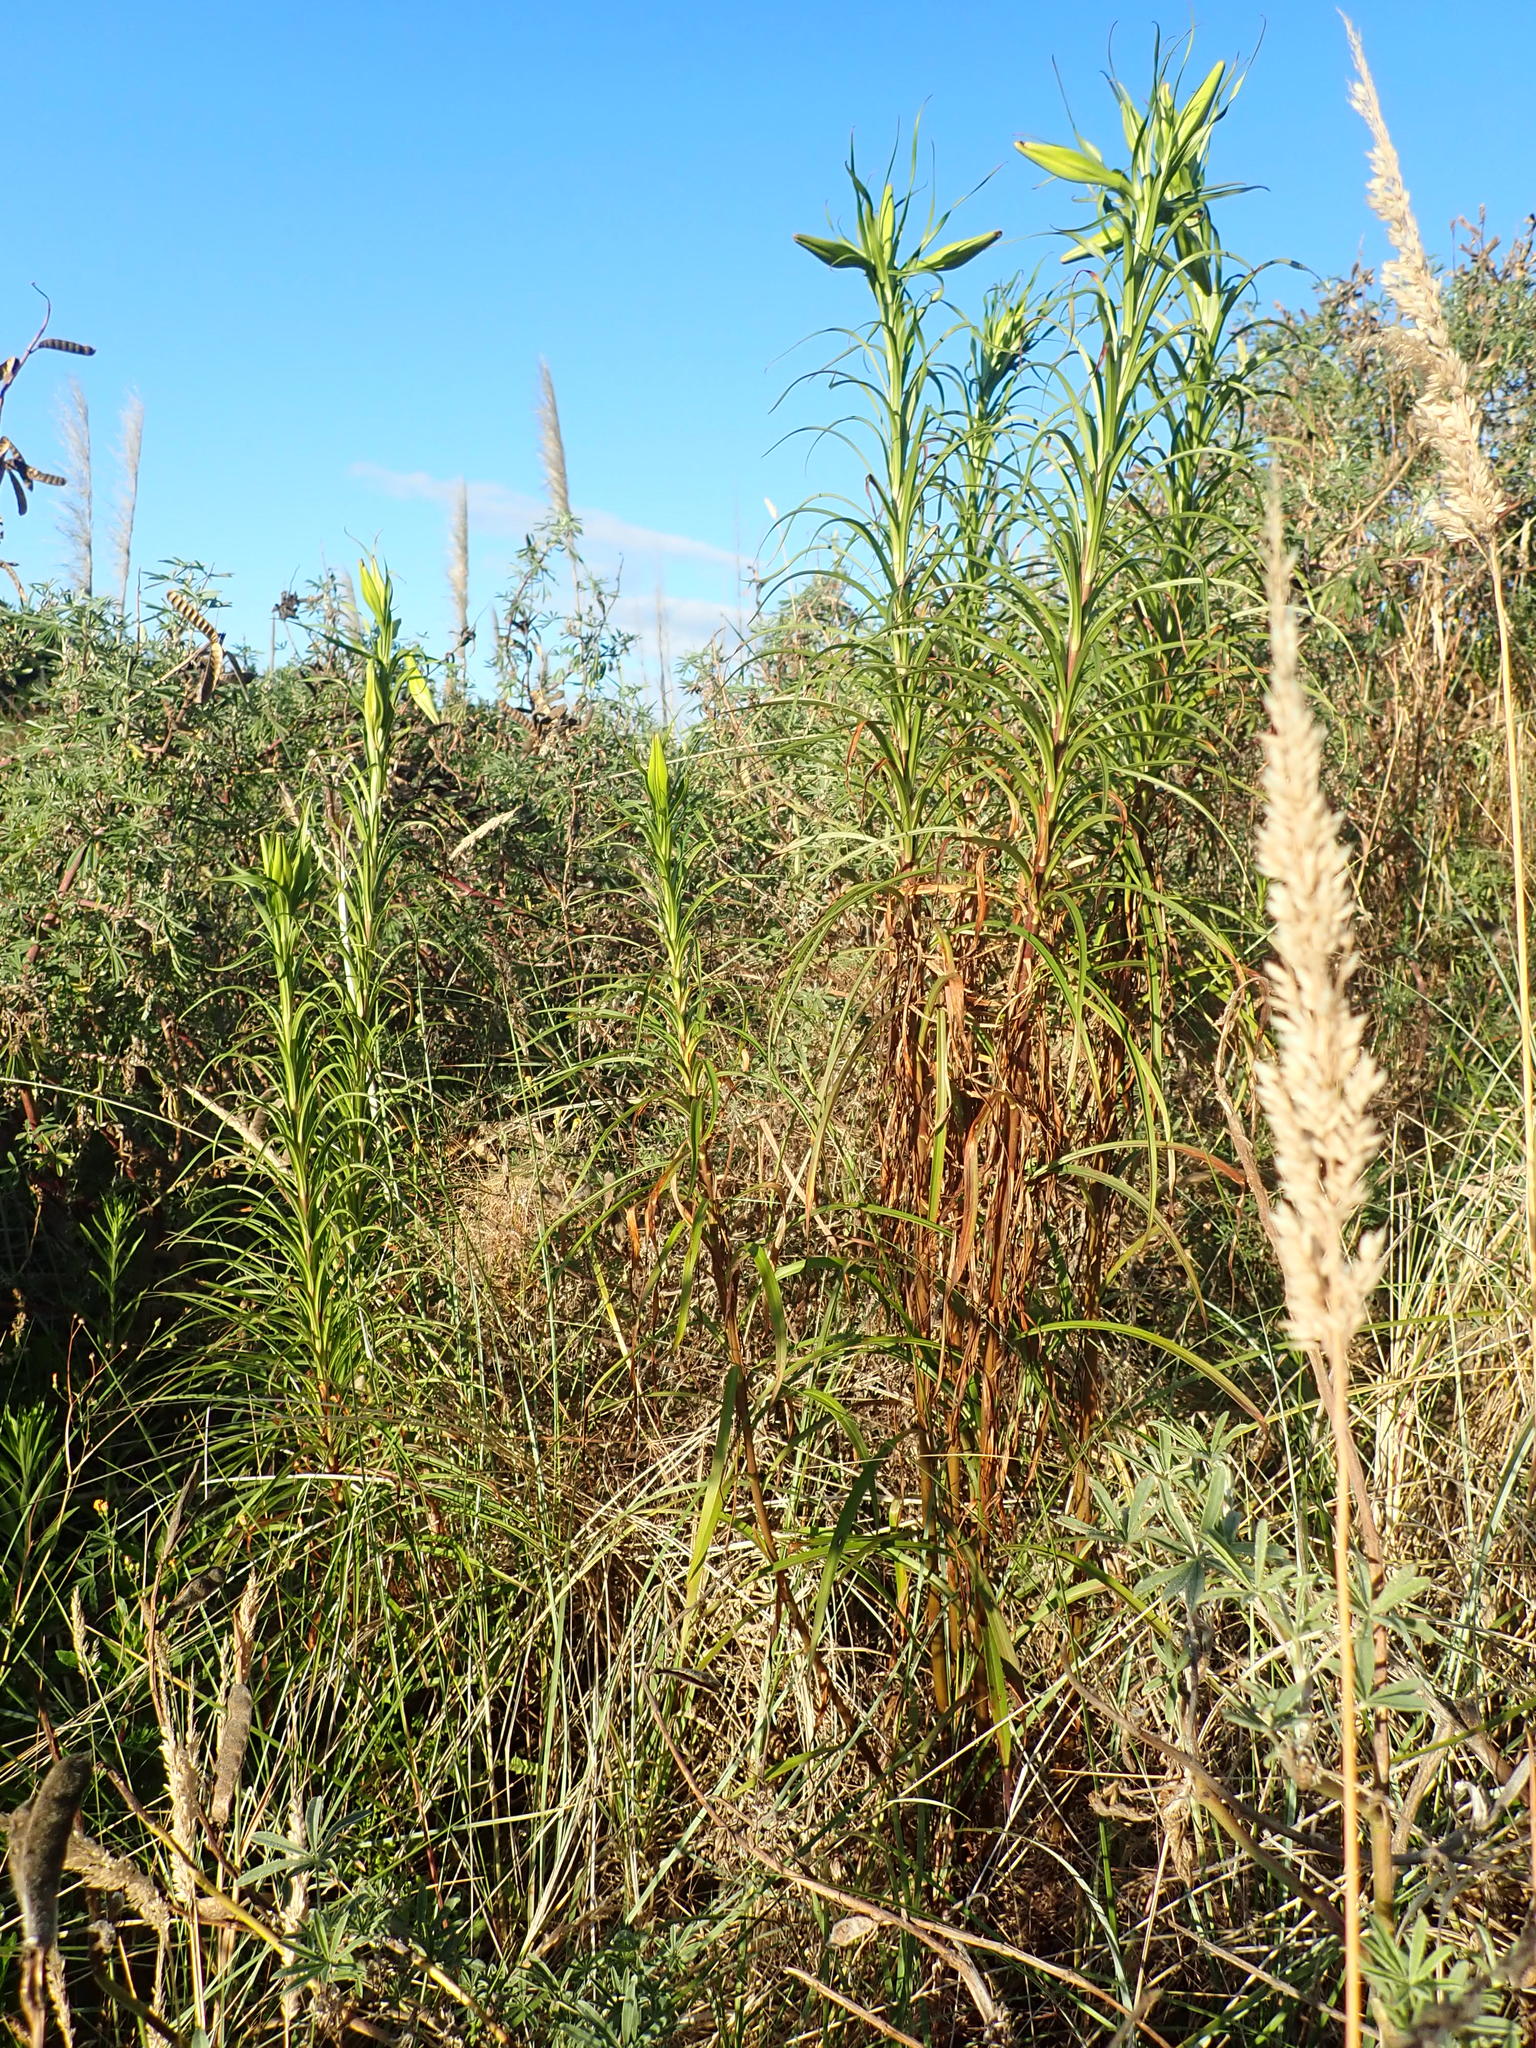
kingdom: Plantae
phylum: Tracheophyta
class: Liliopsida
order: Liliales
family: Liliaceae
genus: Lilium
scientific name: Lilium formosanum
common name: Formosa lily
